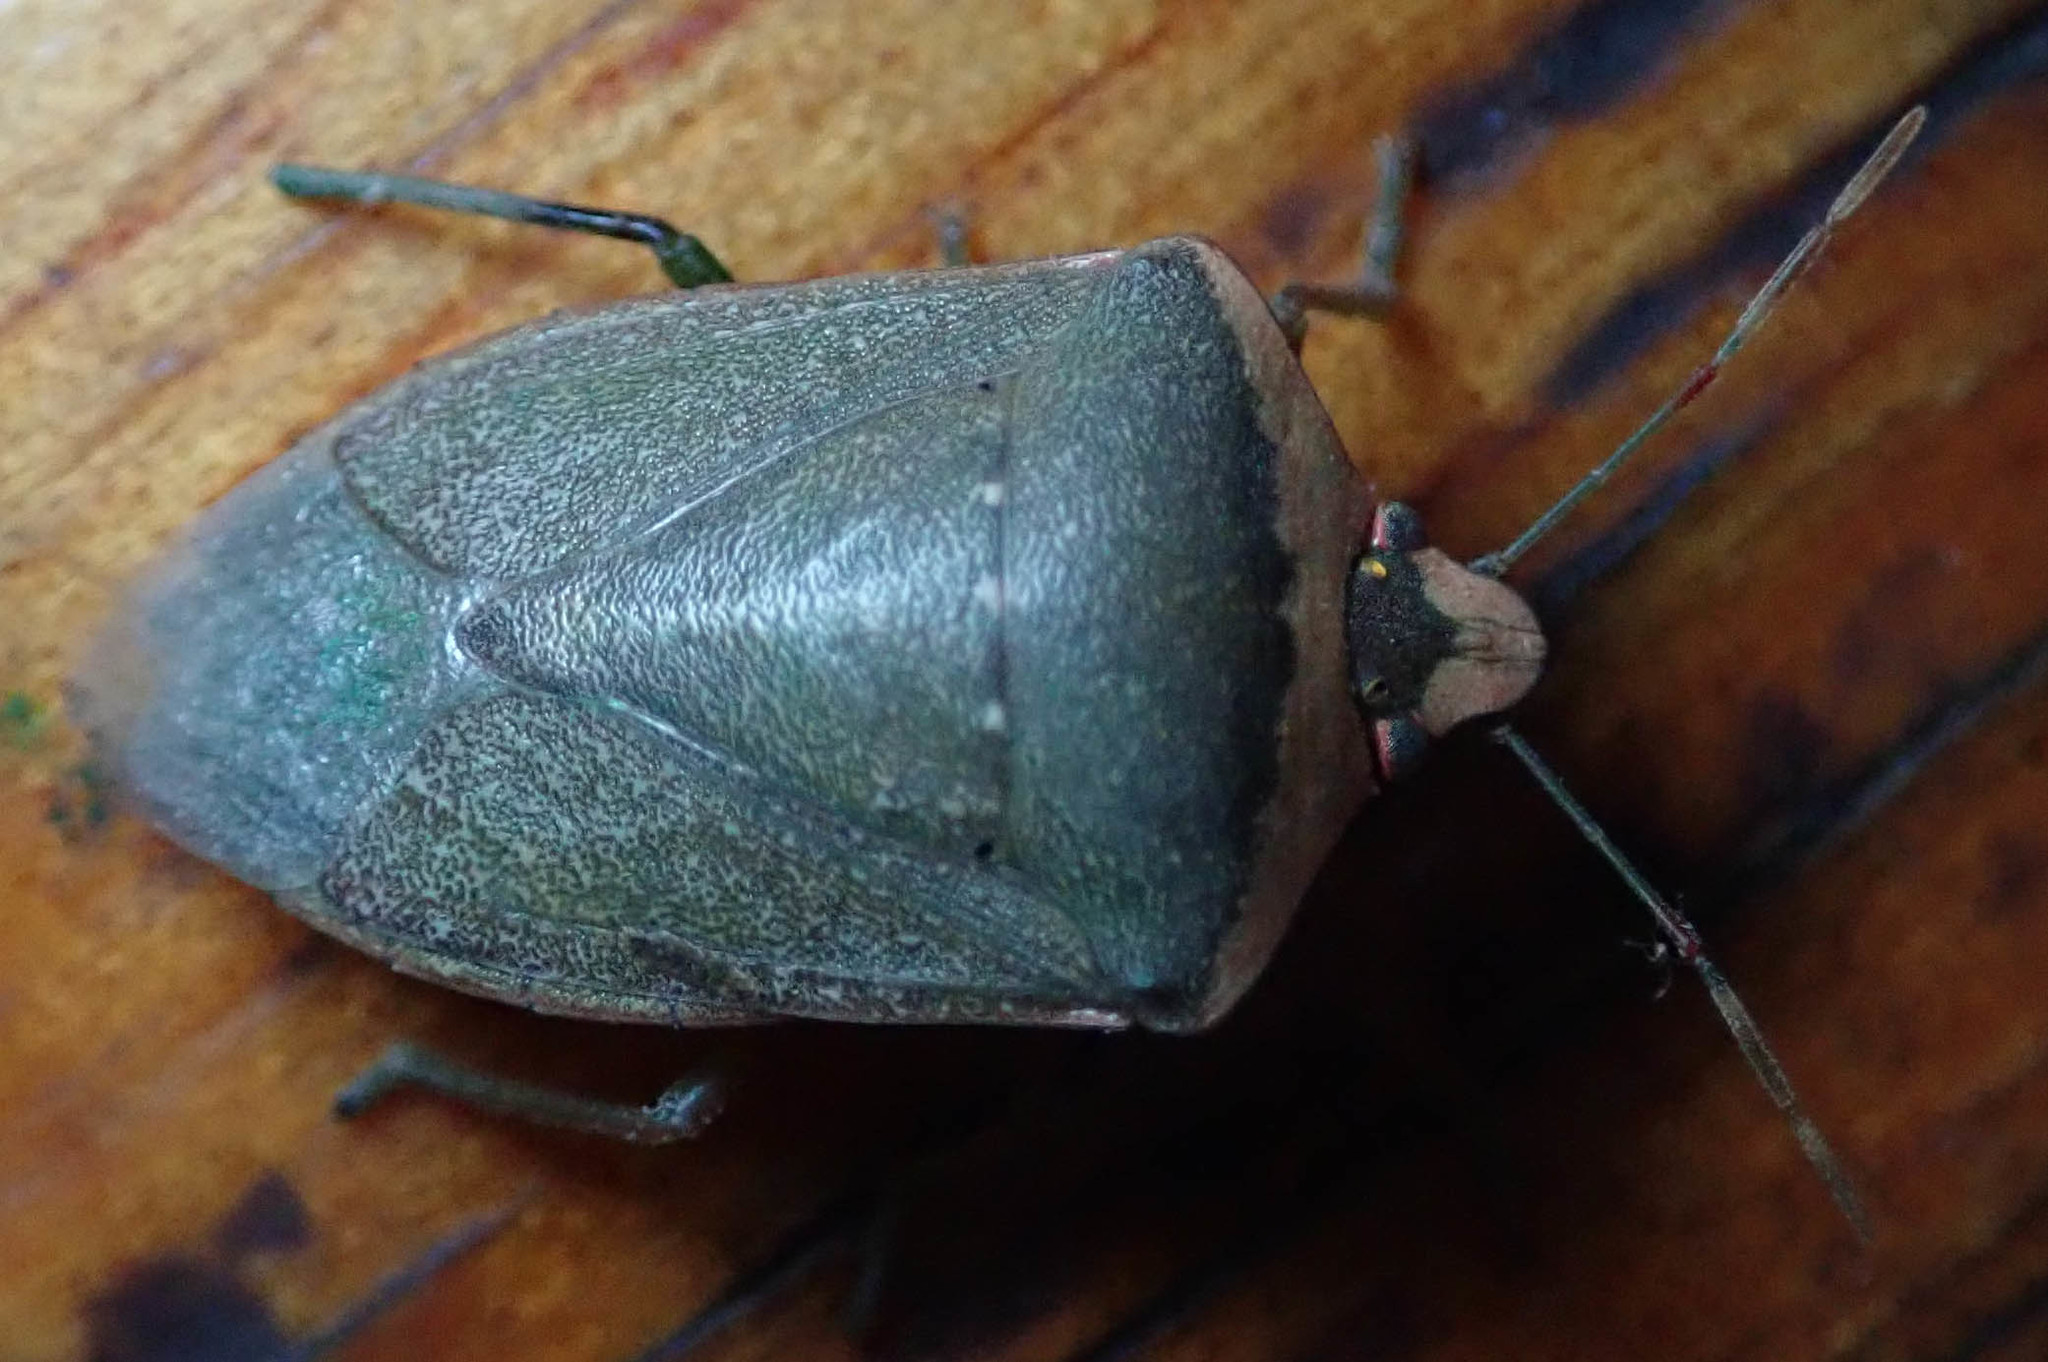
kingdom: Animalia
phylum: Arthropoda
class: Insecta
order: Hemiptera
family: Pentatomidae
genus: Nezara
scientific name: Nezara viridula
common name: Southern green stink bug
